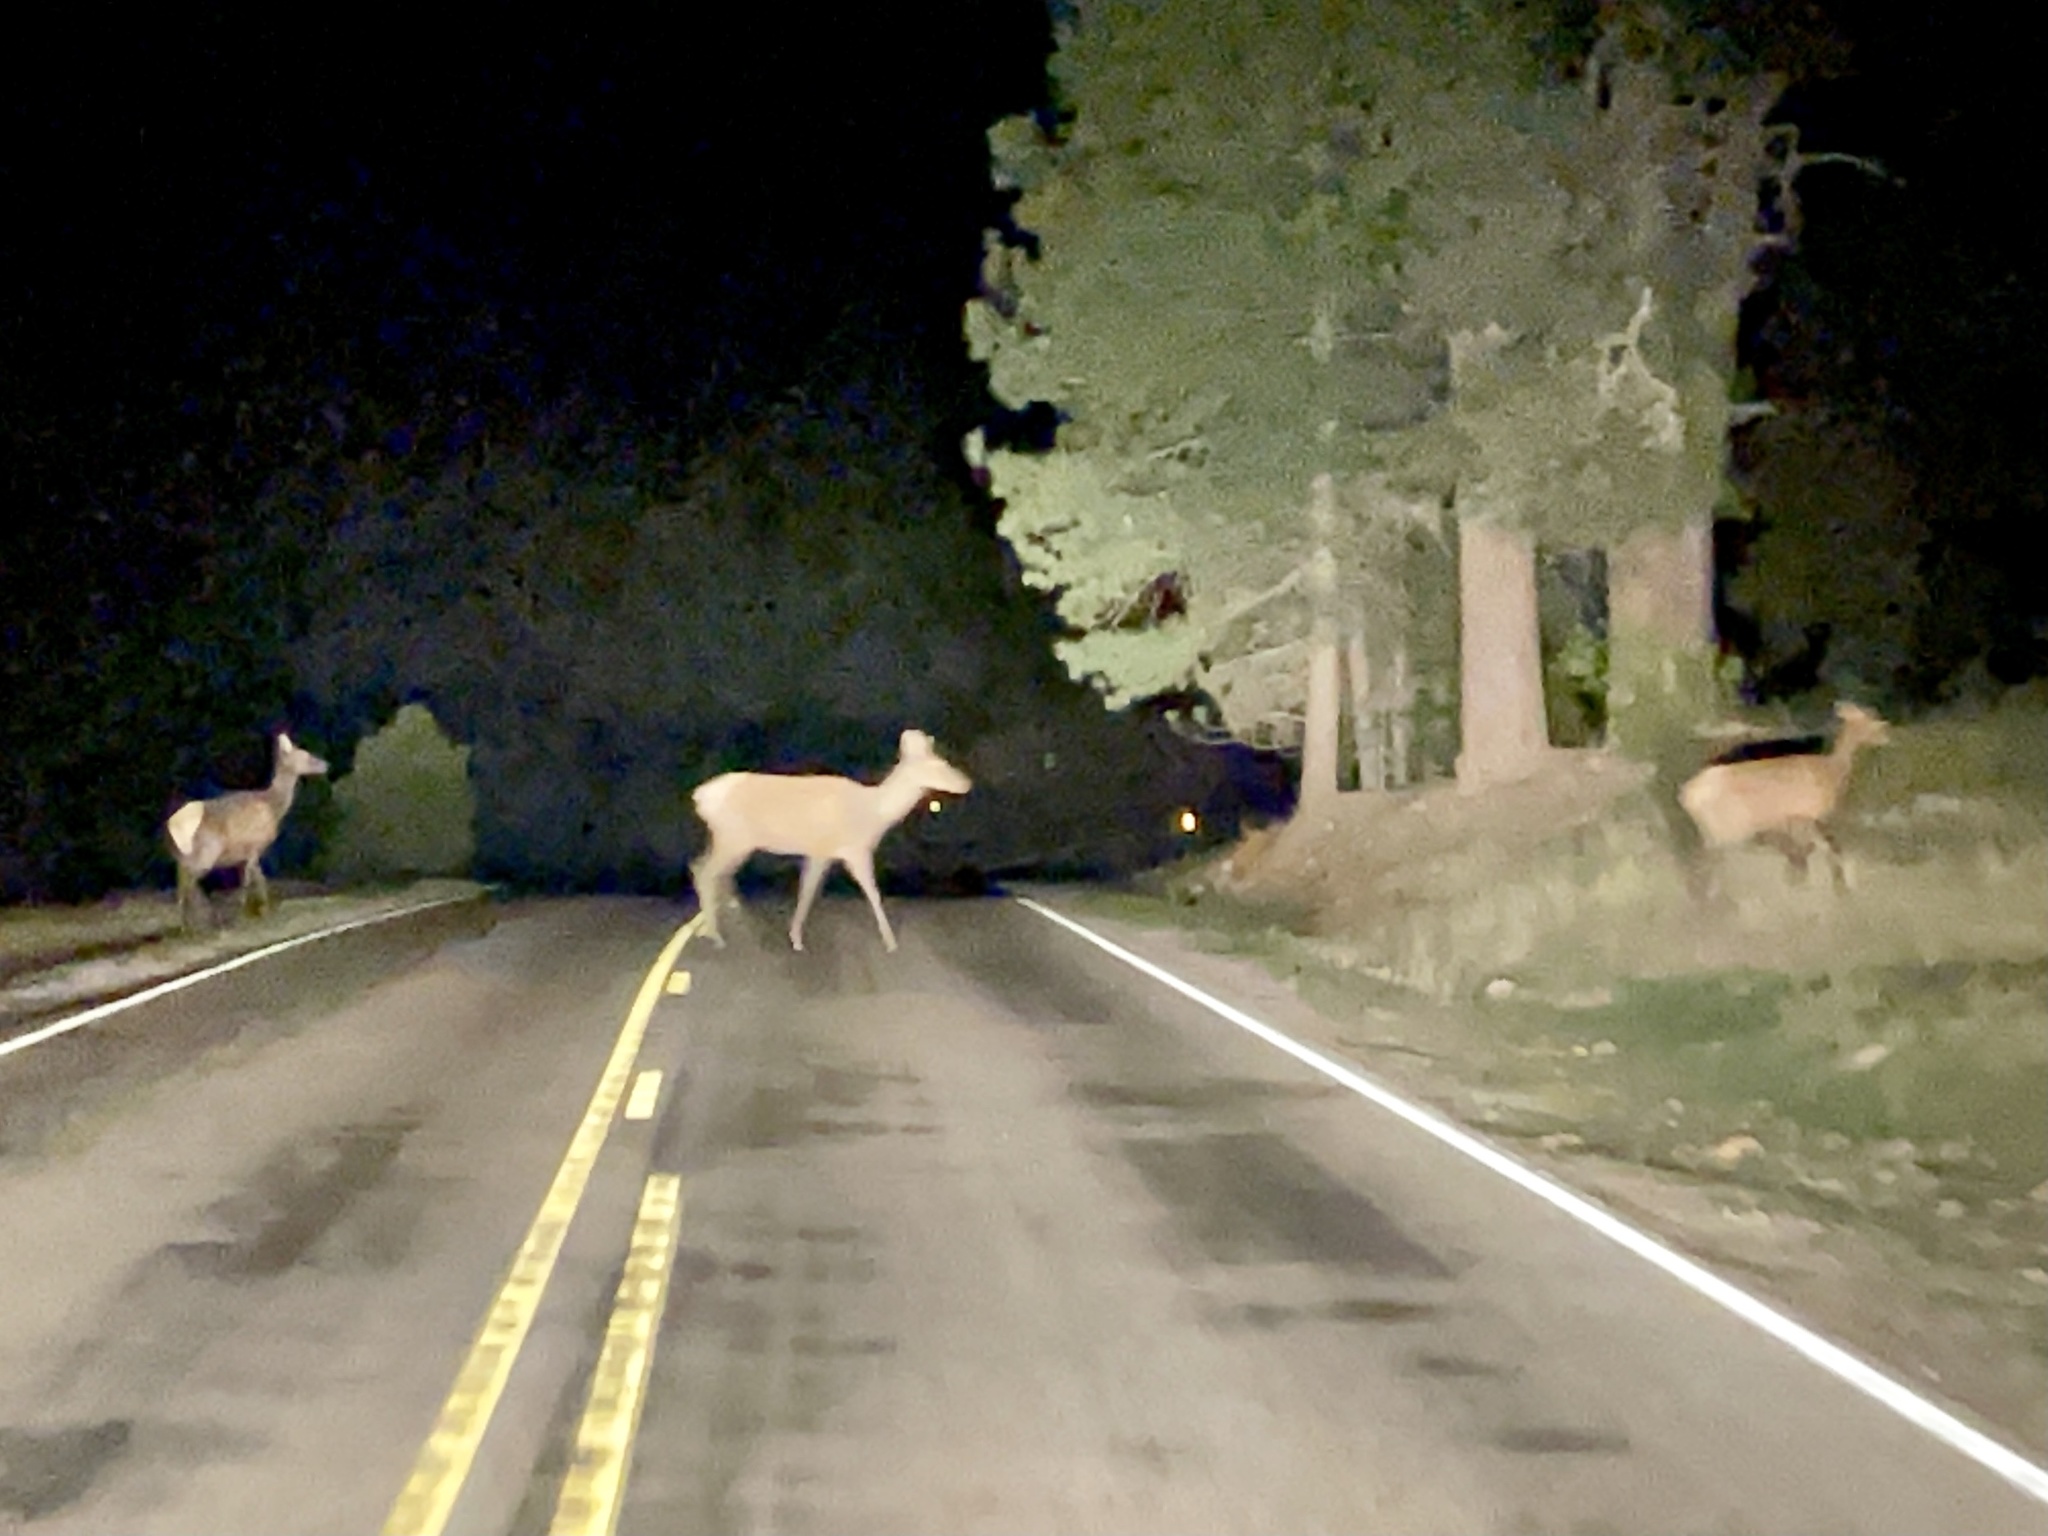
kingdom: Animalia
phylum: Chordata
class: Mammalia
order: Artiodactyla
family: Cervidae
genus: Cervus
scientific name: Cervus elaphus
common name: Red deer
